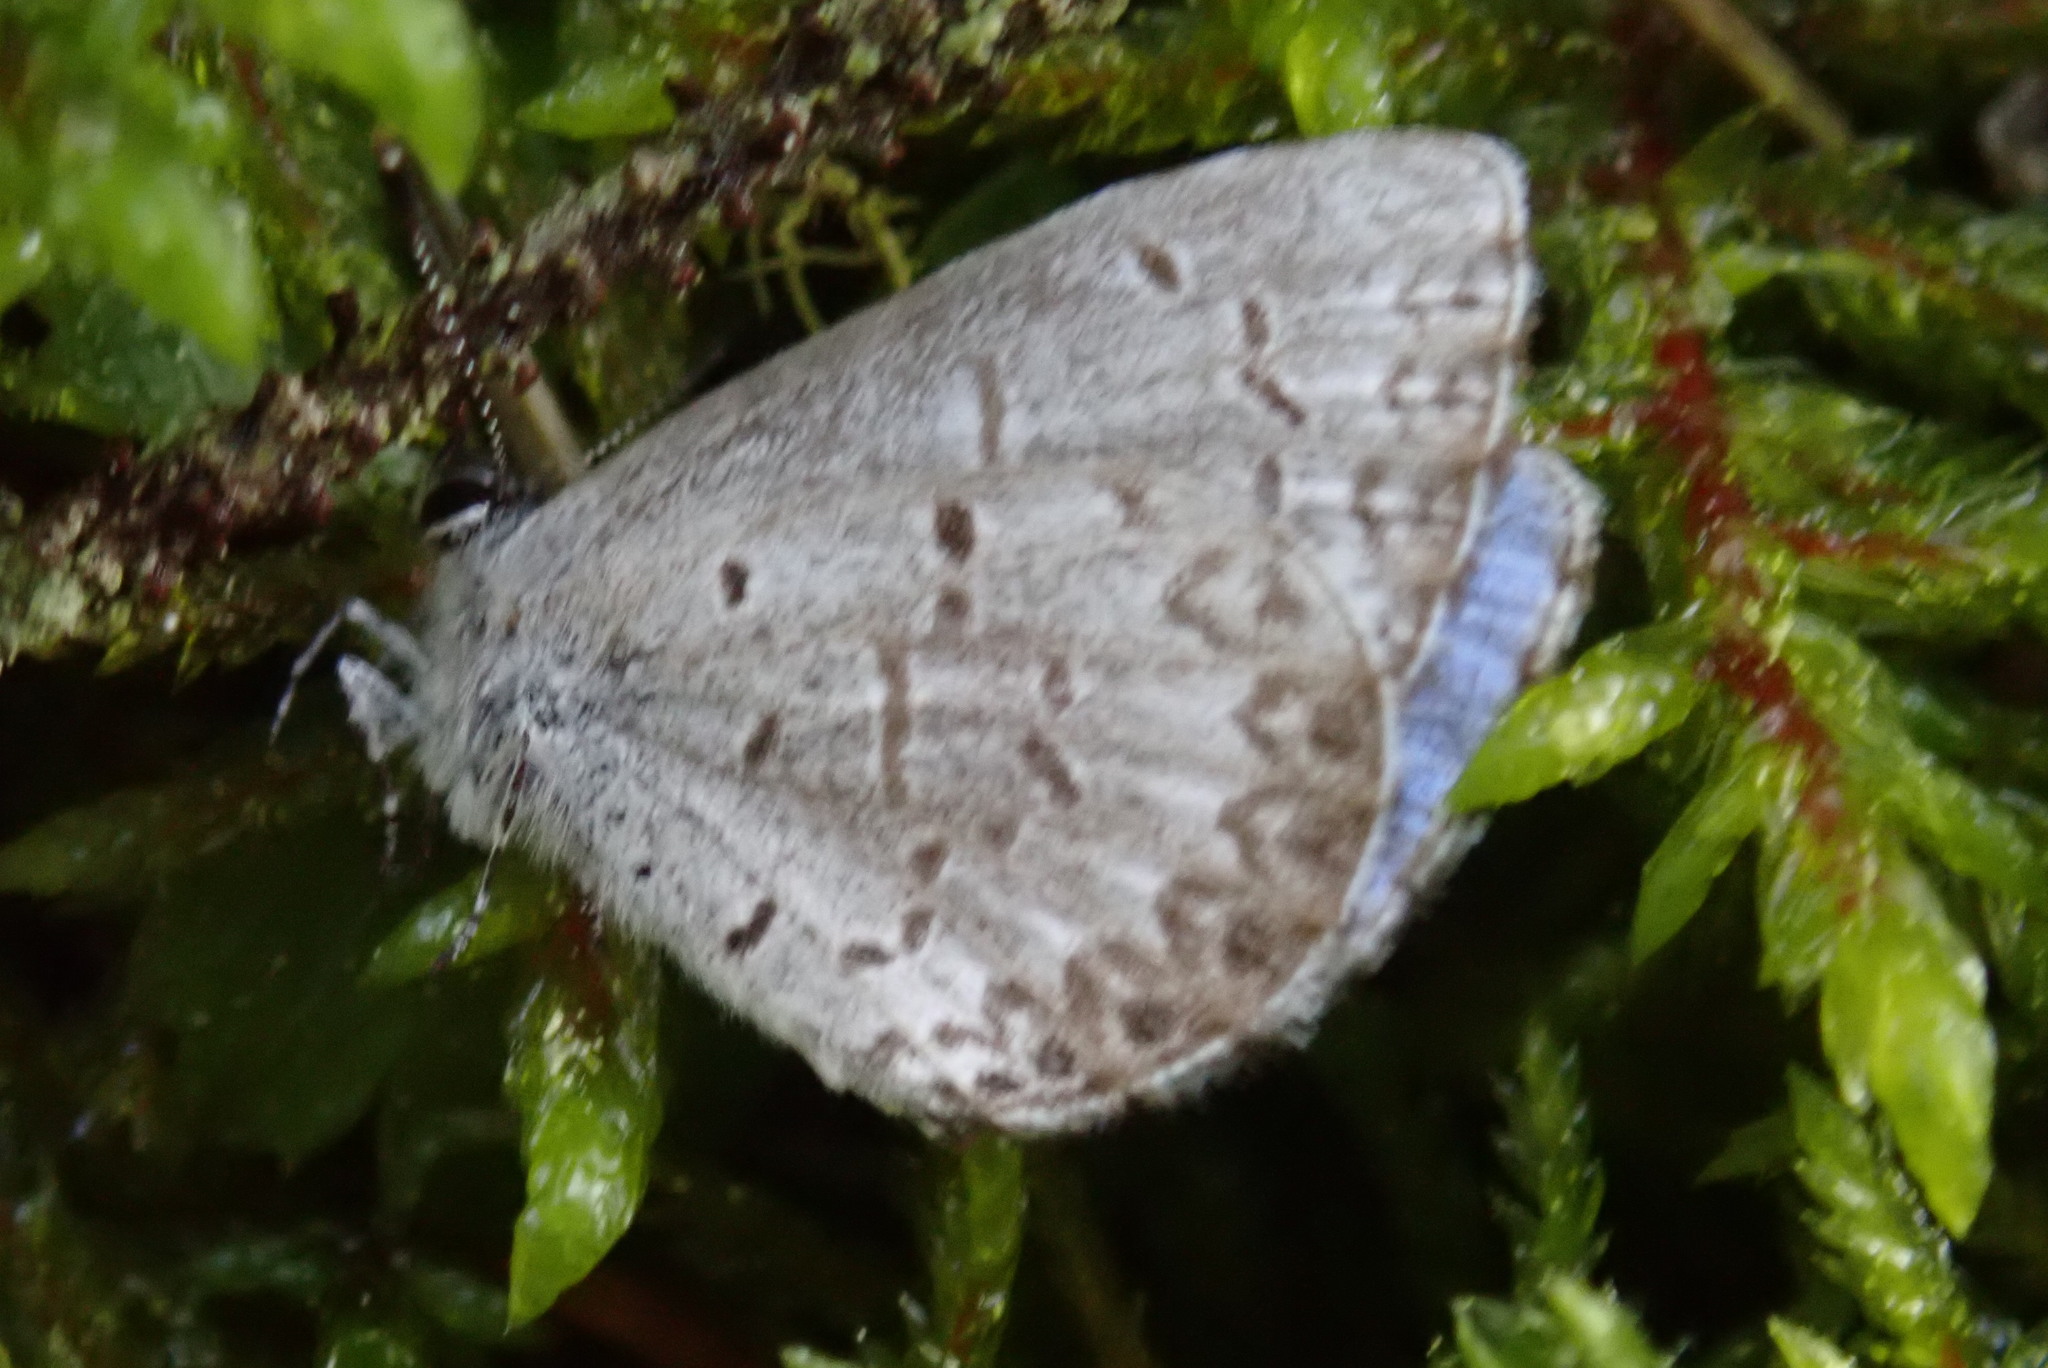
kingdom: Animalia
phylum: Arthropoda
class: Insecta
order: Lepidoptera
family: Lycaenidae
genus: Celastrina
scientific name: Celastrina lucia
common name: Lucia azure
